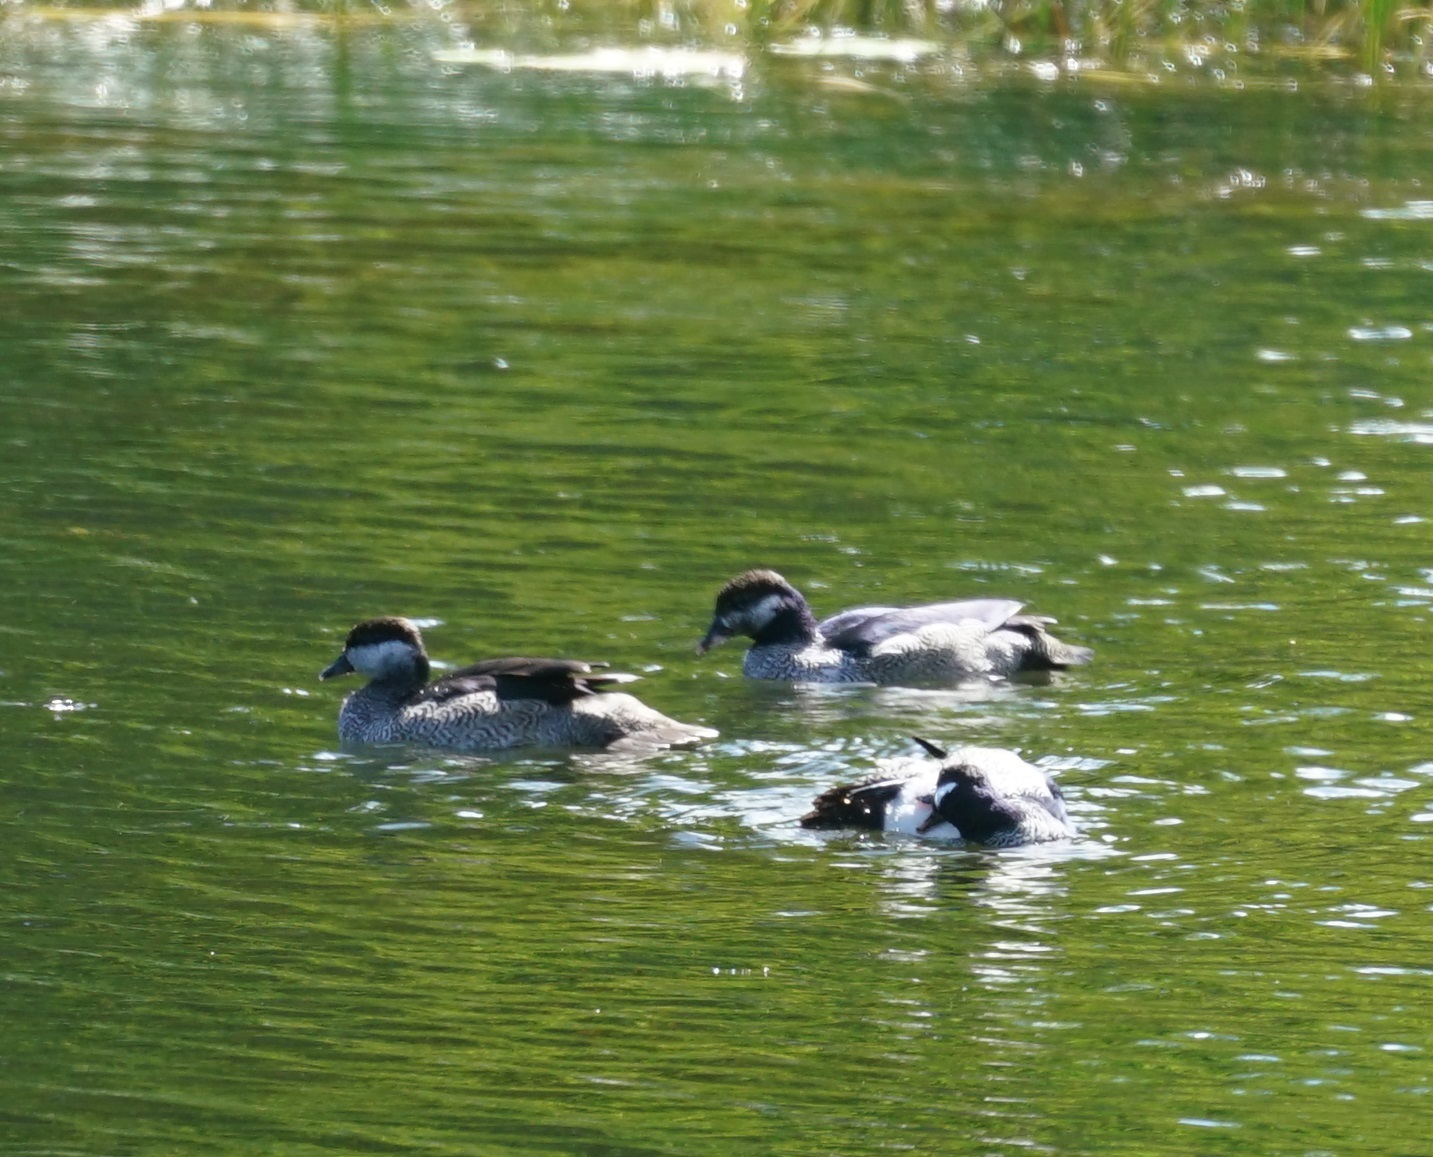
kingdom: Animalia
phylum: Chordata
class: Aves
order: Anseriformes
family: Anatidae
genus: Nettapus
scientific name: Nettapus pulchellus
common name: Green pygmy-goose
